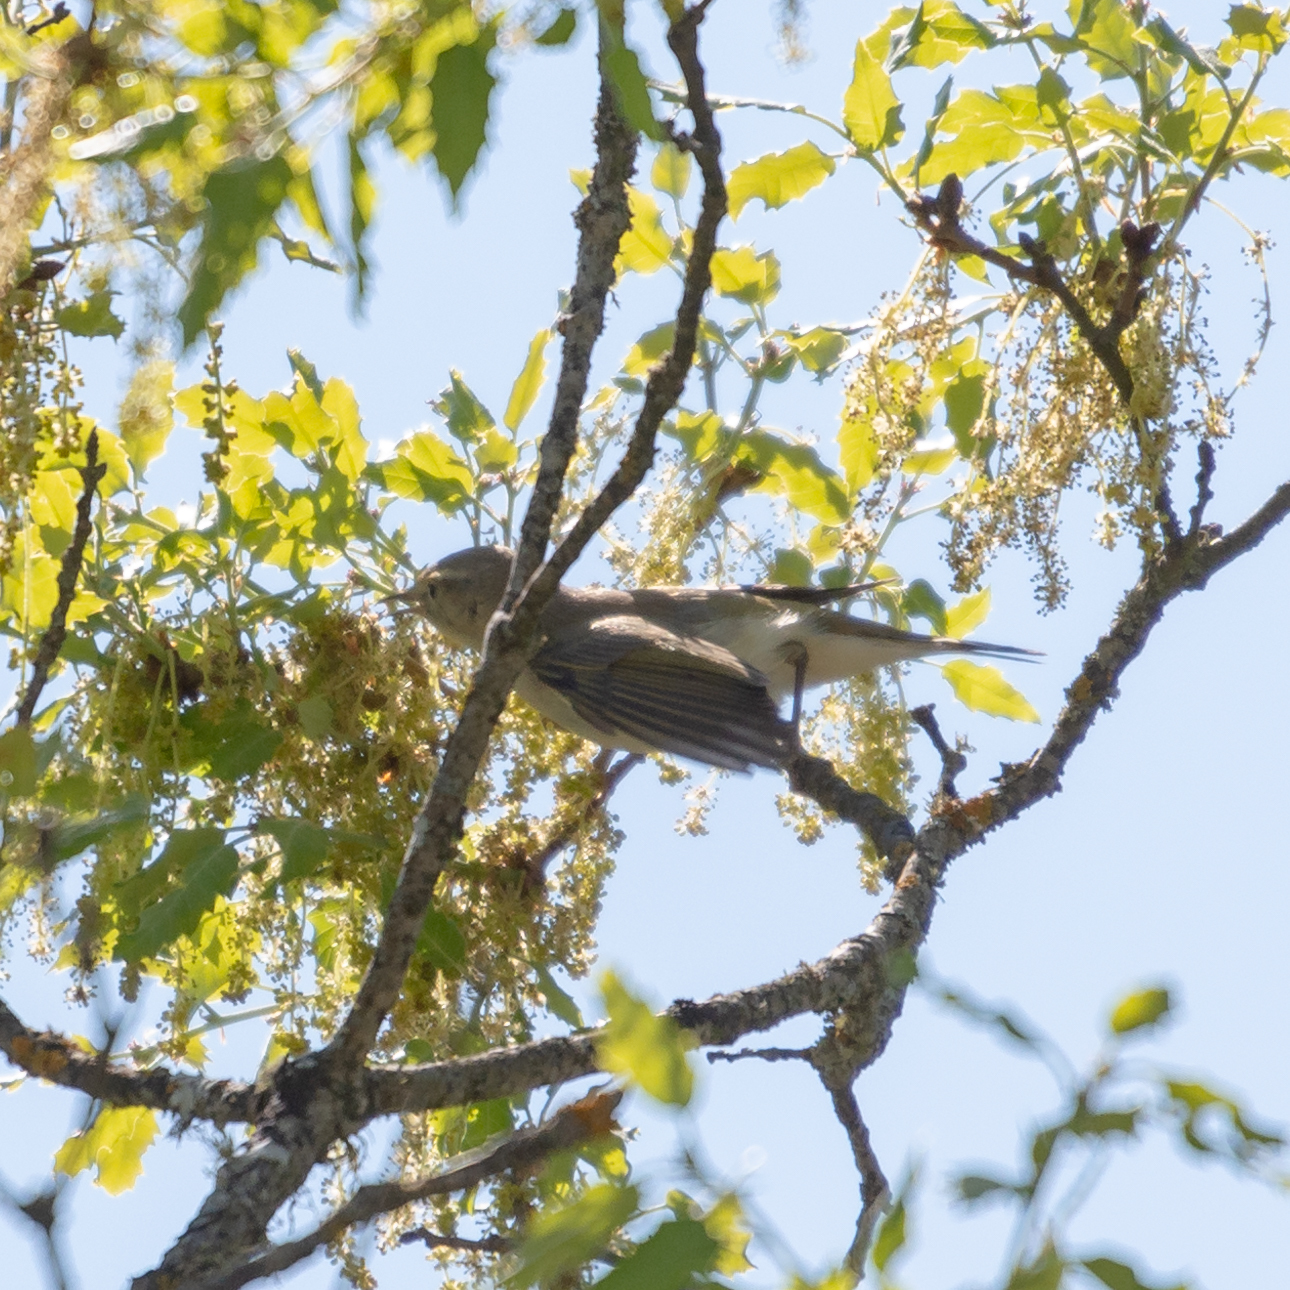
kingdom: Animalia
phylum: Chordata
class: Aves
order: Passeriformes
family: Phylloscopidae
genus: Phylloscopus
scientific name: Phylloscopus bonelli
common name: Western bonelli's warbler
